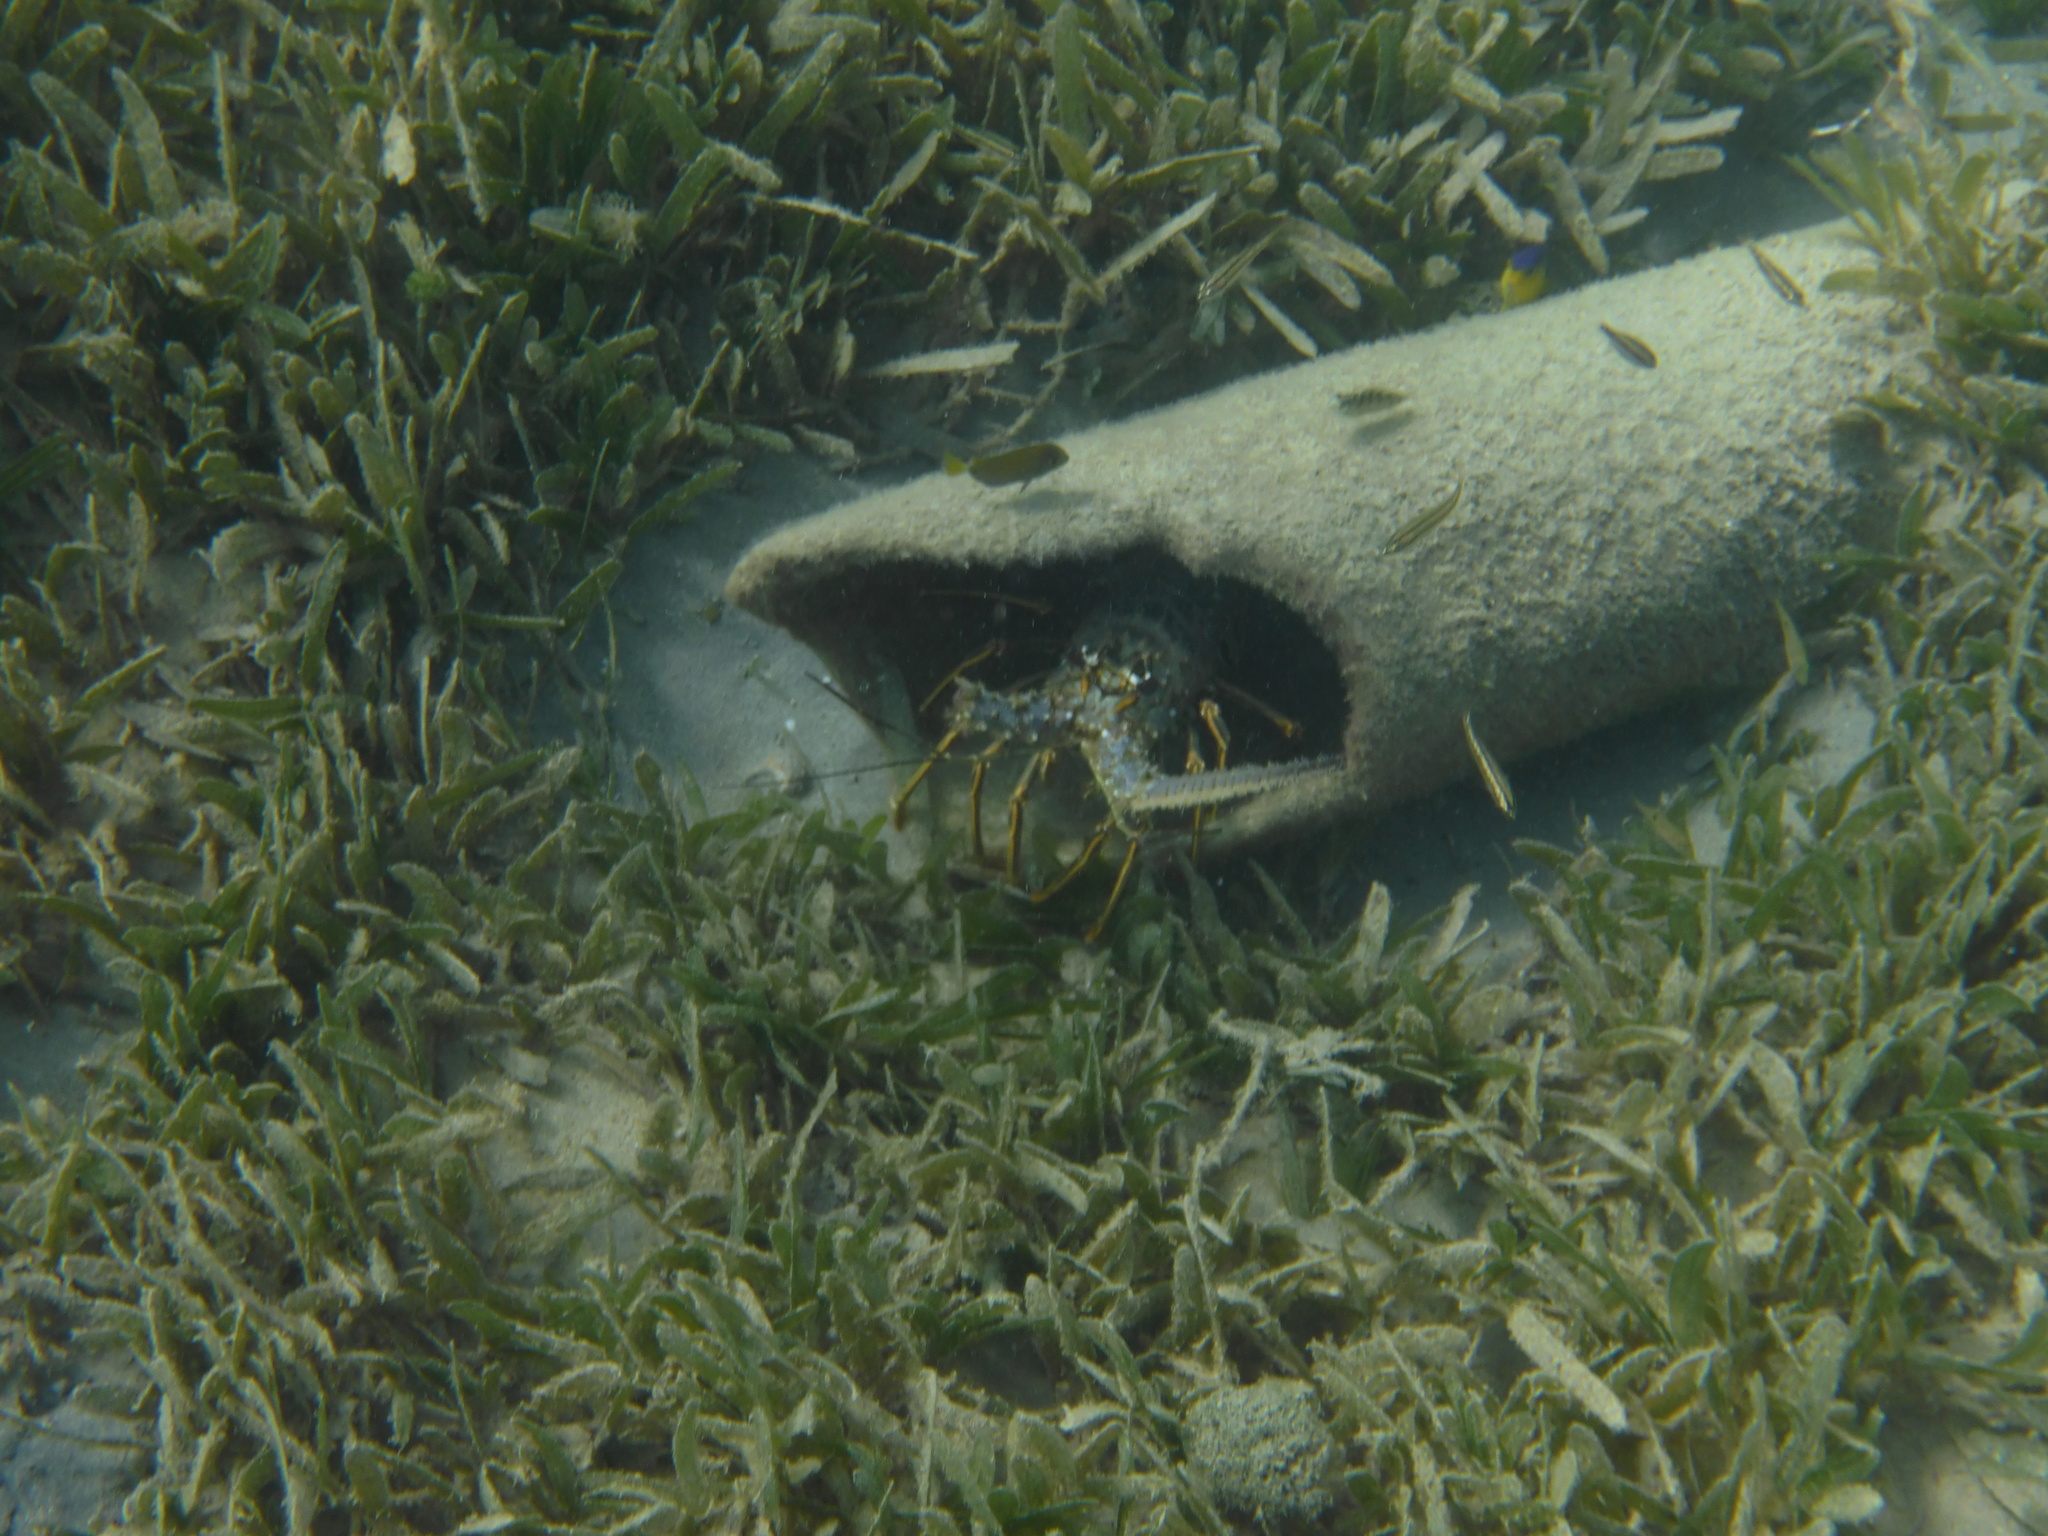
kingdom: Animalia
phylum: Arthropoda
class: Malacostraca
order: Decapoda
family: Palinuridae
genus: Panulirus
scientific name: Panulirus argus
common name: Caribbean spiny lobster
